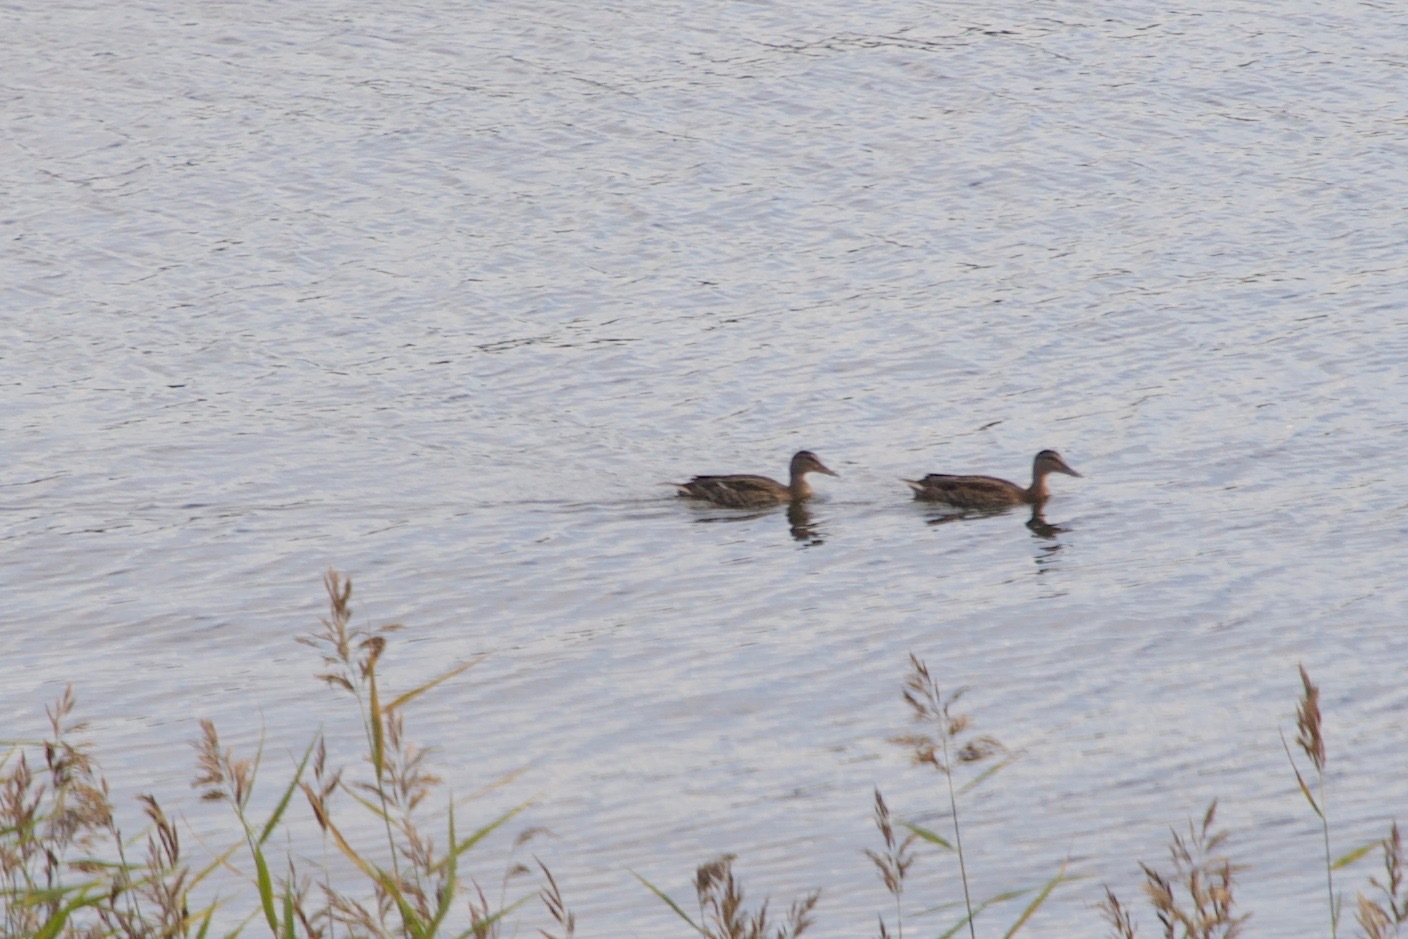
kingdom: Animalia
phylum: Chordata
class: Aves
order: Anseriformes
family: Anatidae
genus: Anas
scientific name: Anas platyrhynchos
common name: Mallard
